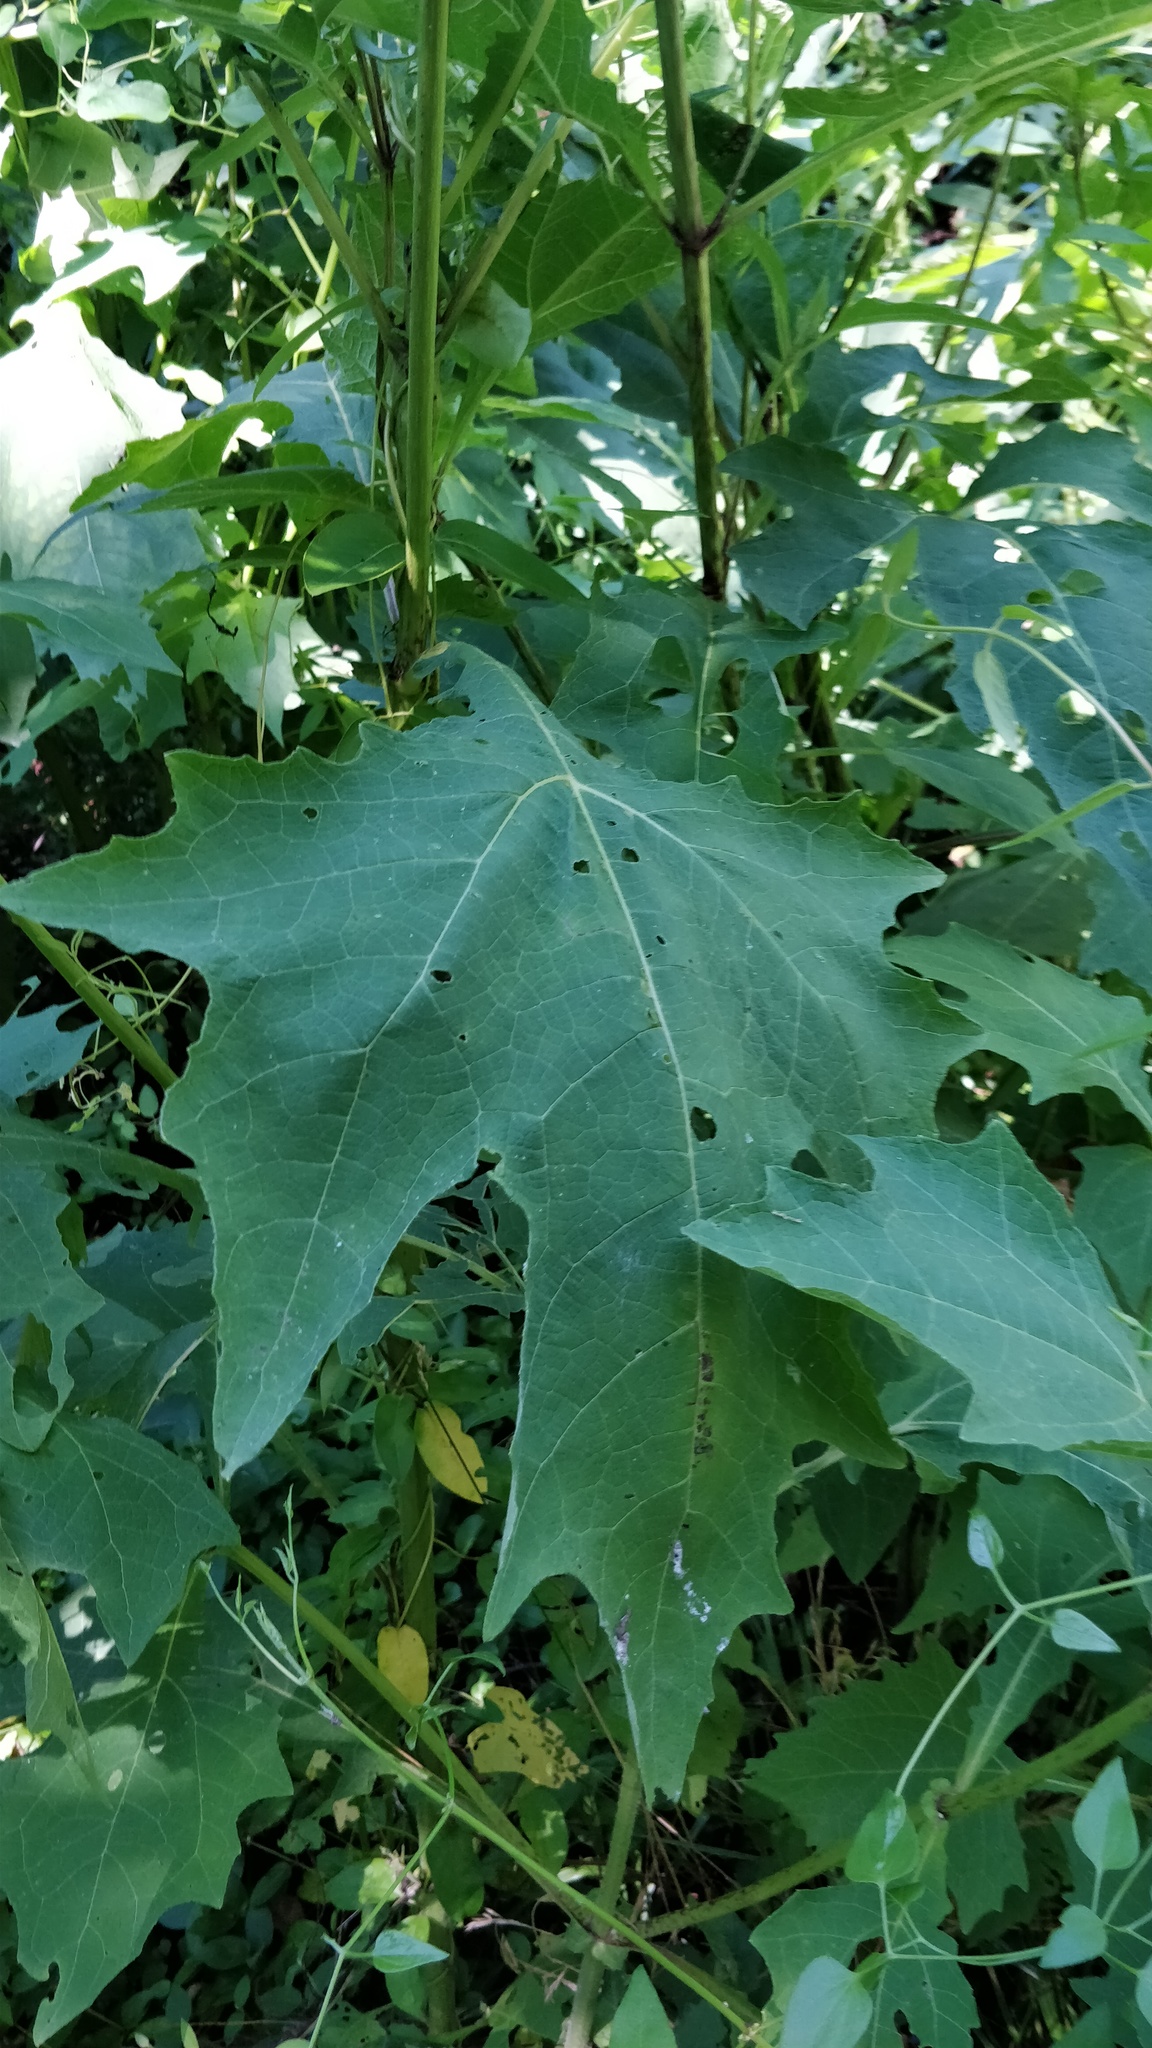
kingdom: Plantae
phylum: Tracheophyta
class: Magnoliopsida
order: Asterales
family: Asteraceae
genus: Smallanthus
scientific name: Smallanthus uvedalia
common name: Bear's-foot
